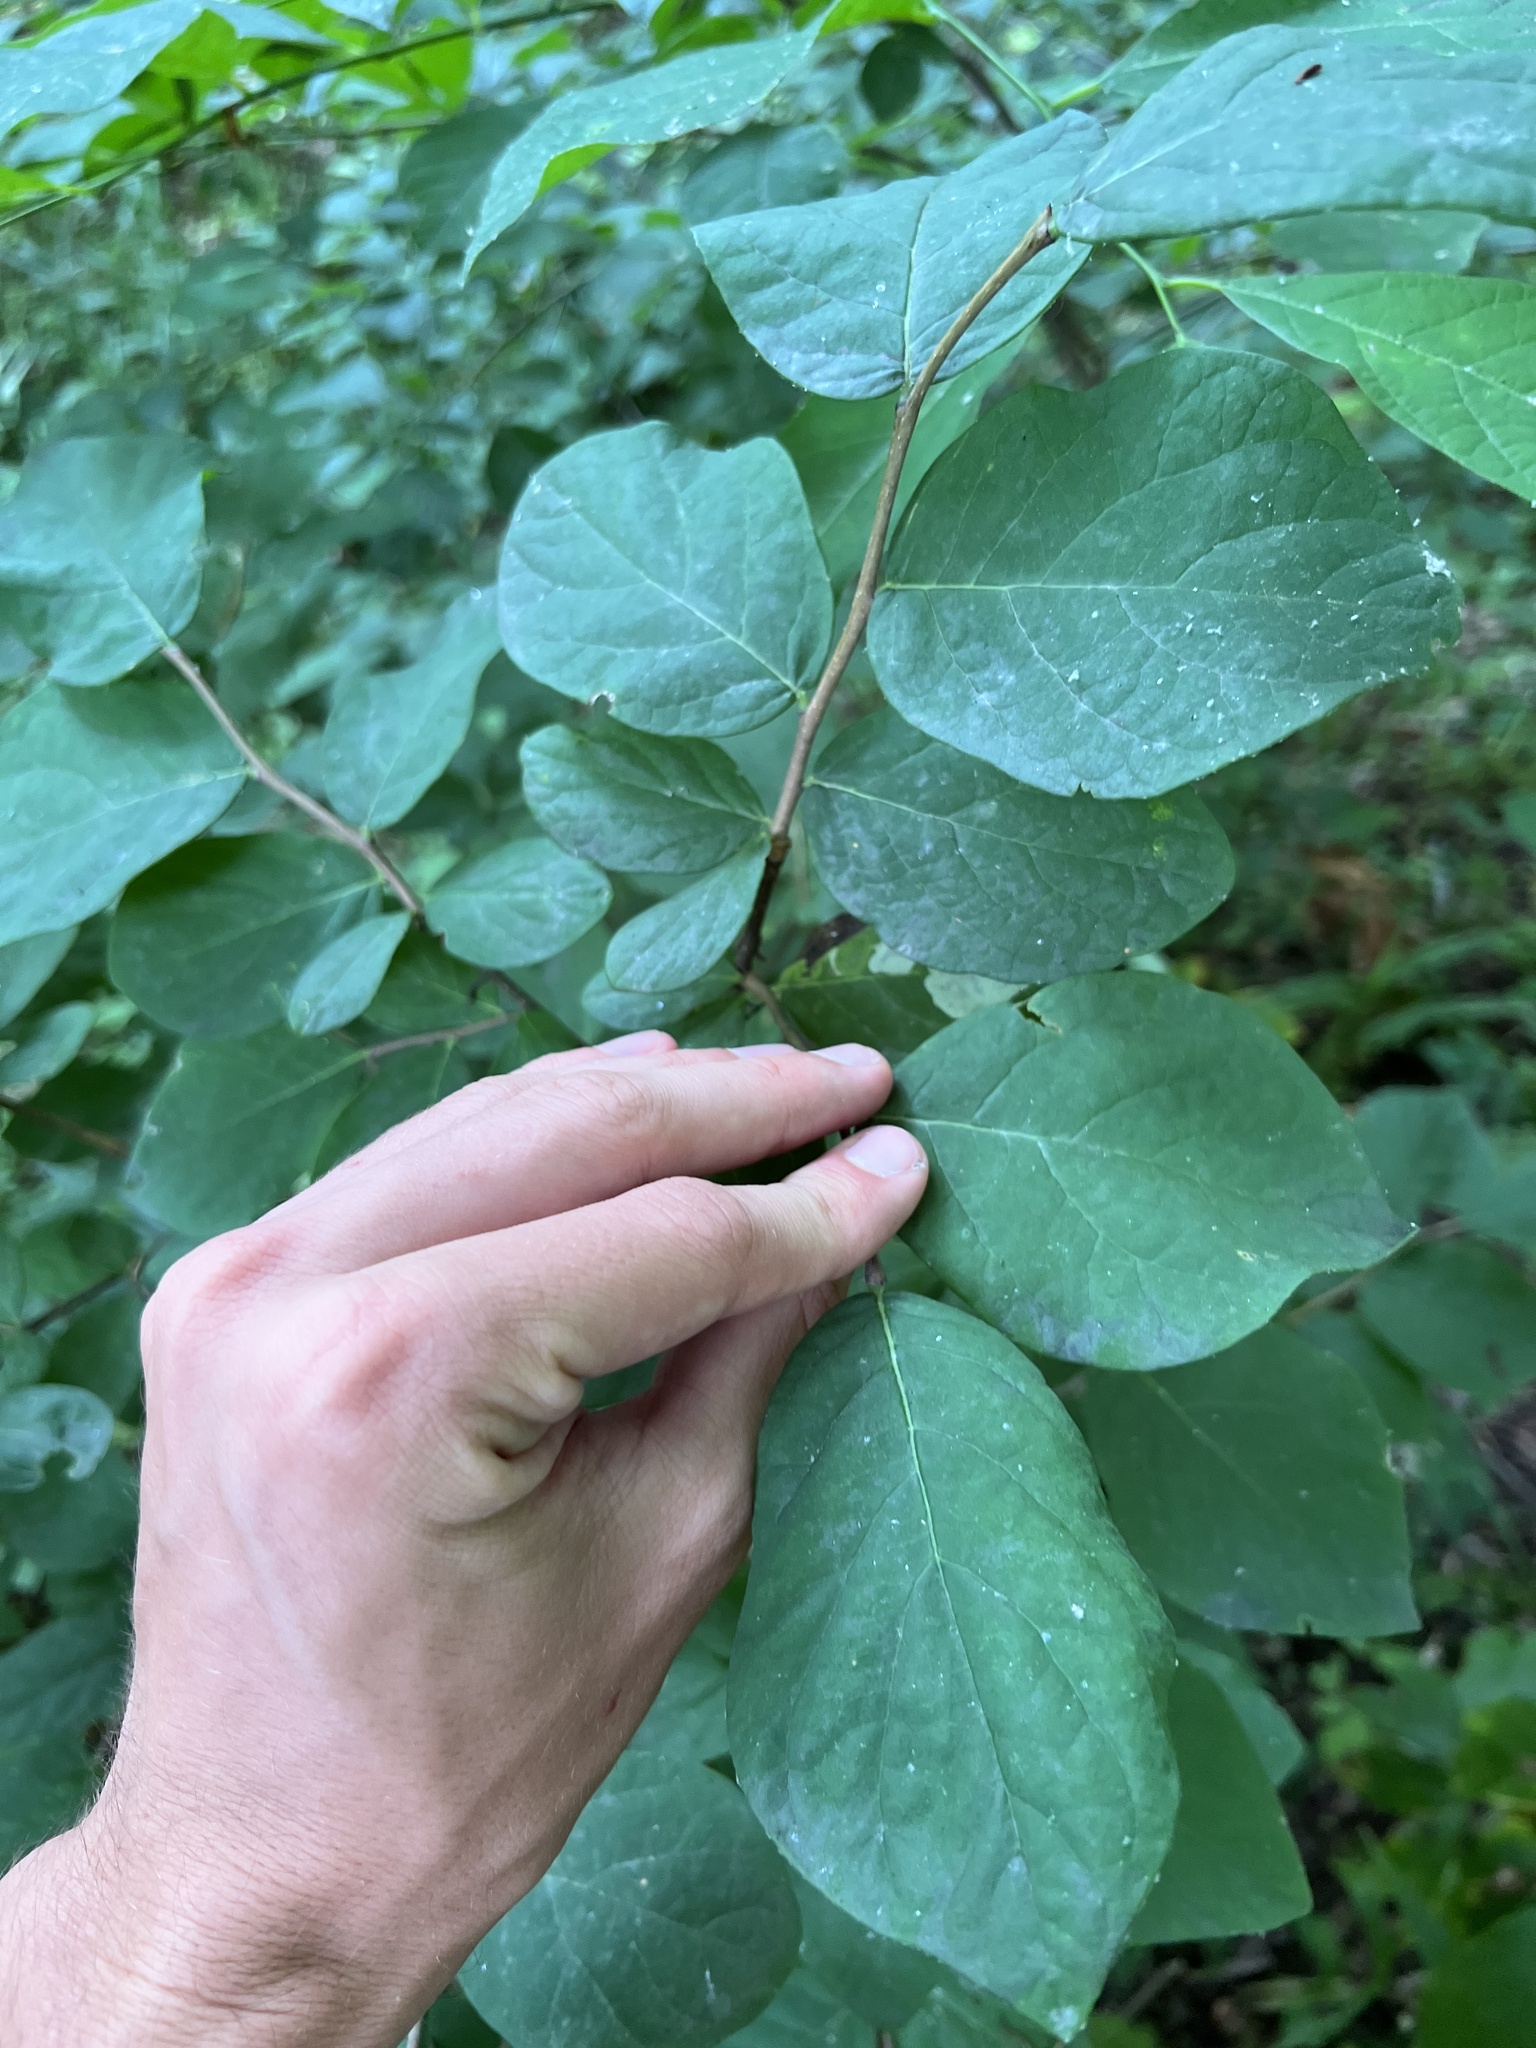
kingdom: Plantae
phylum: Tracheophyta
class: Magnoliopsida
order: Malvales
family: Thymelaeaceae
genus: Dirca
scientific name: Dirca palustris
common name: Leatherwood
